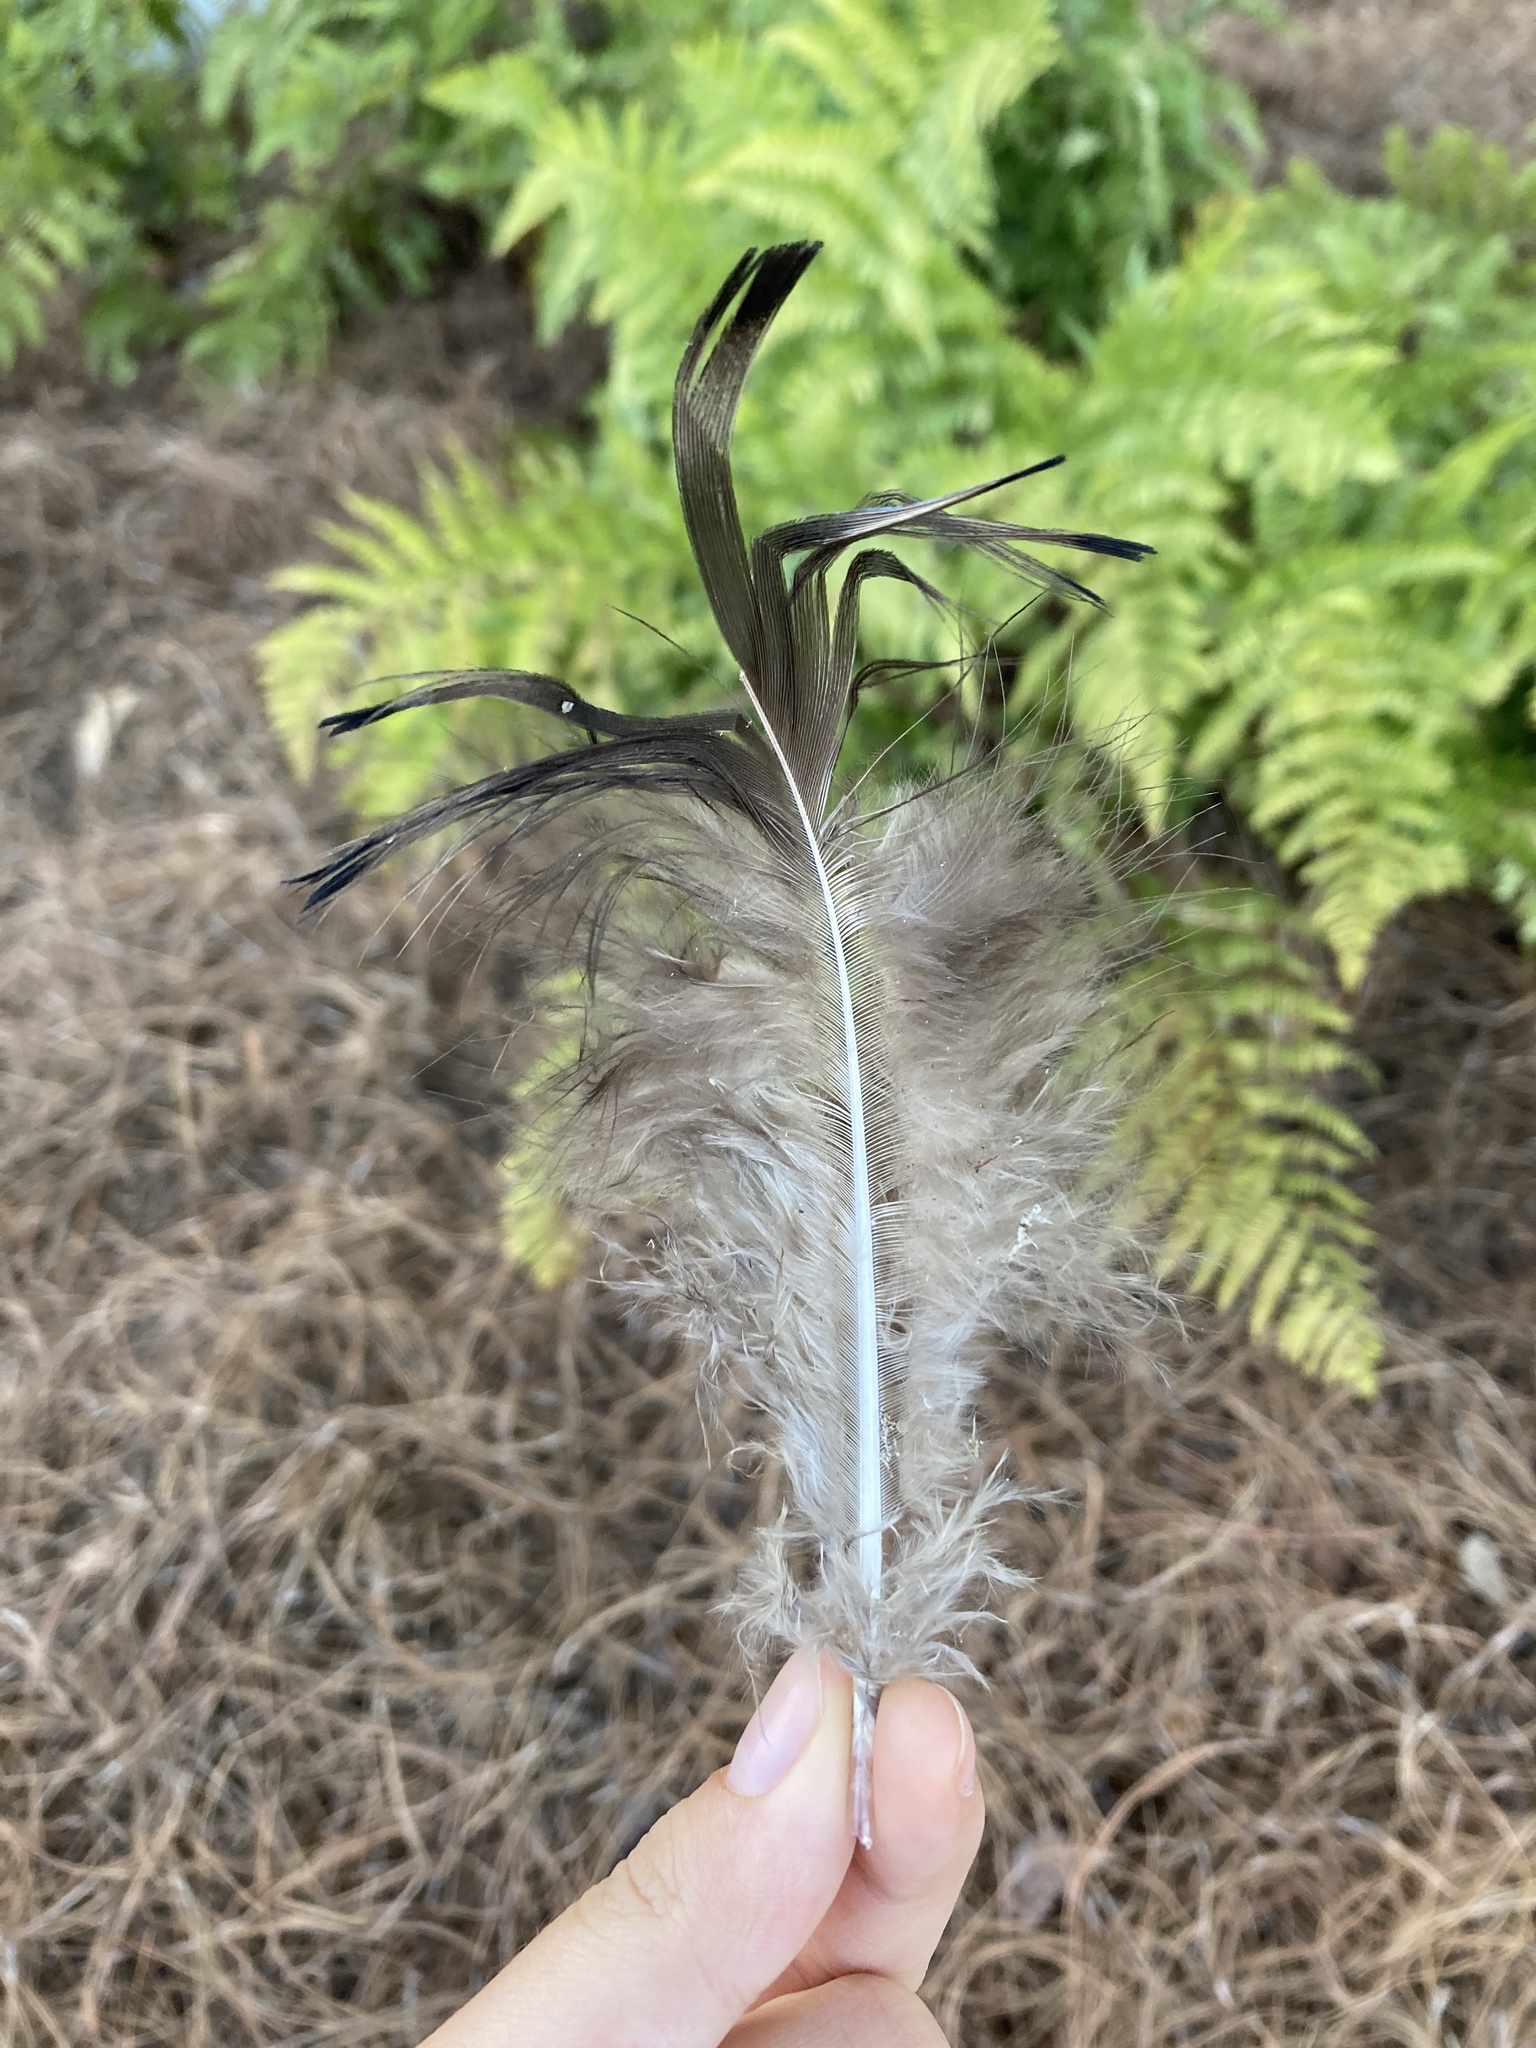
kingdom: Animalia
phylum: Chordata
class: Aves
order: Galliformes
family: Phasianidae
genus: Meleagris
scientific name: Meleagris gallopavo
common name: Wild turkey
